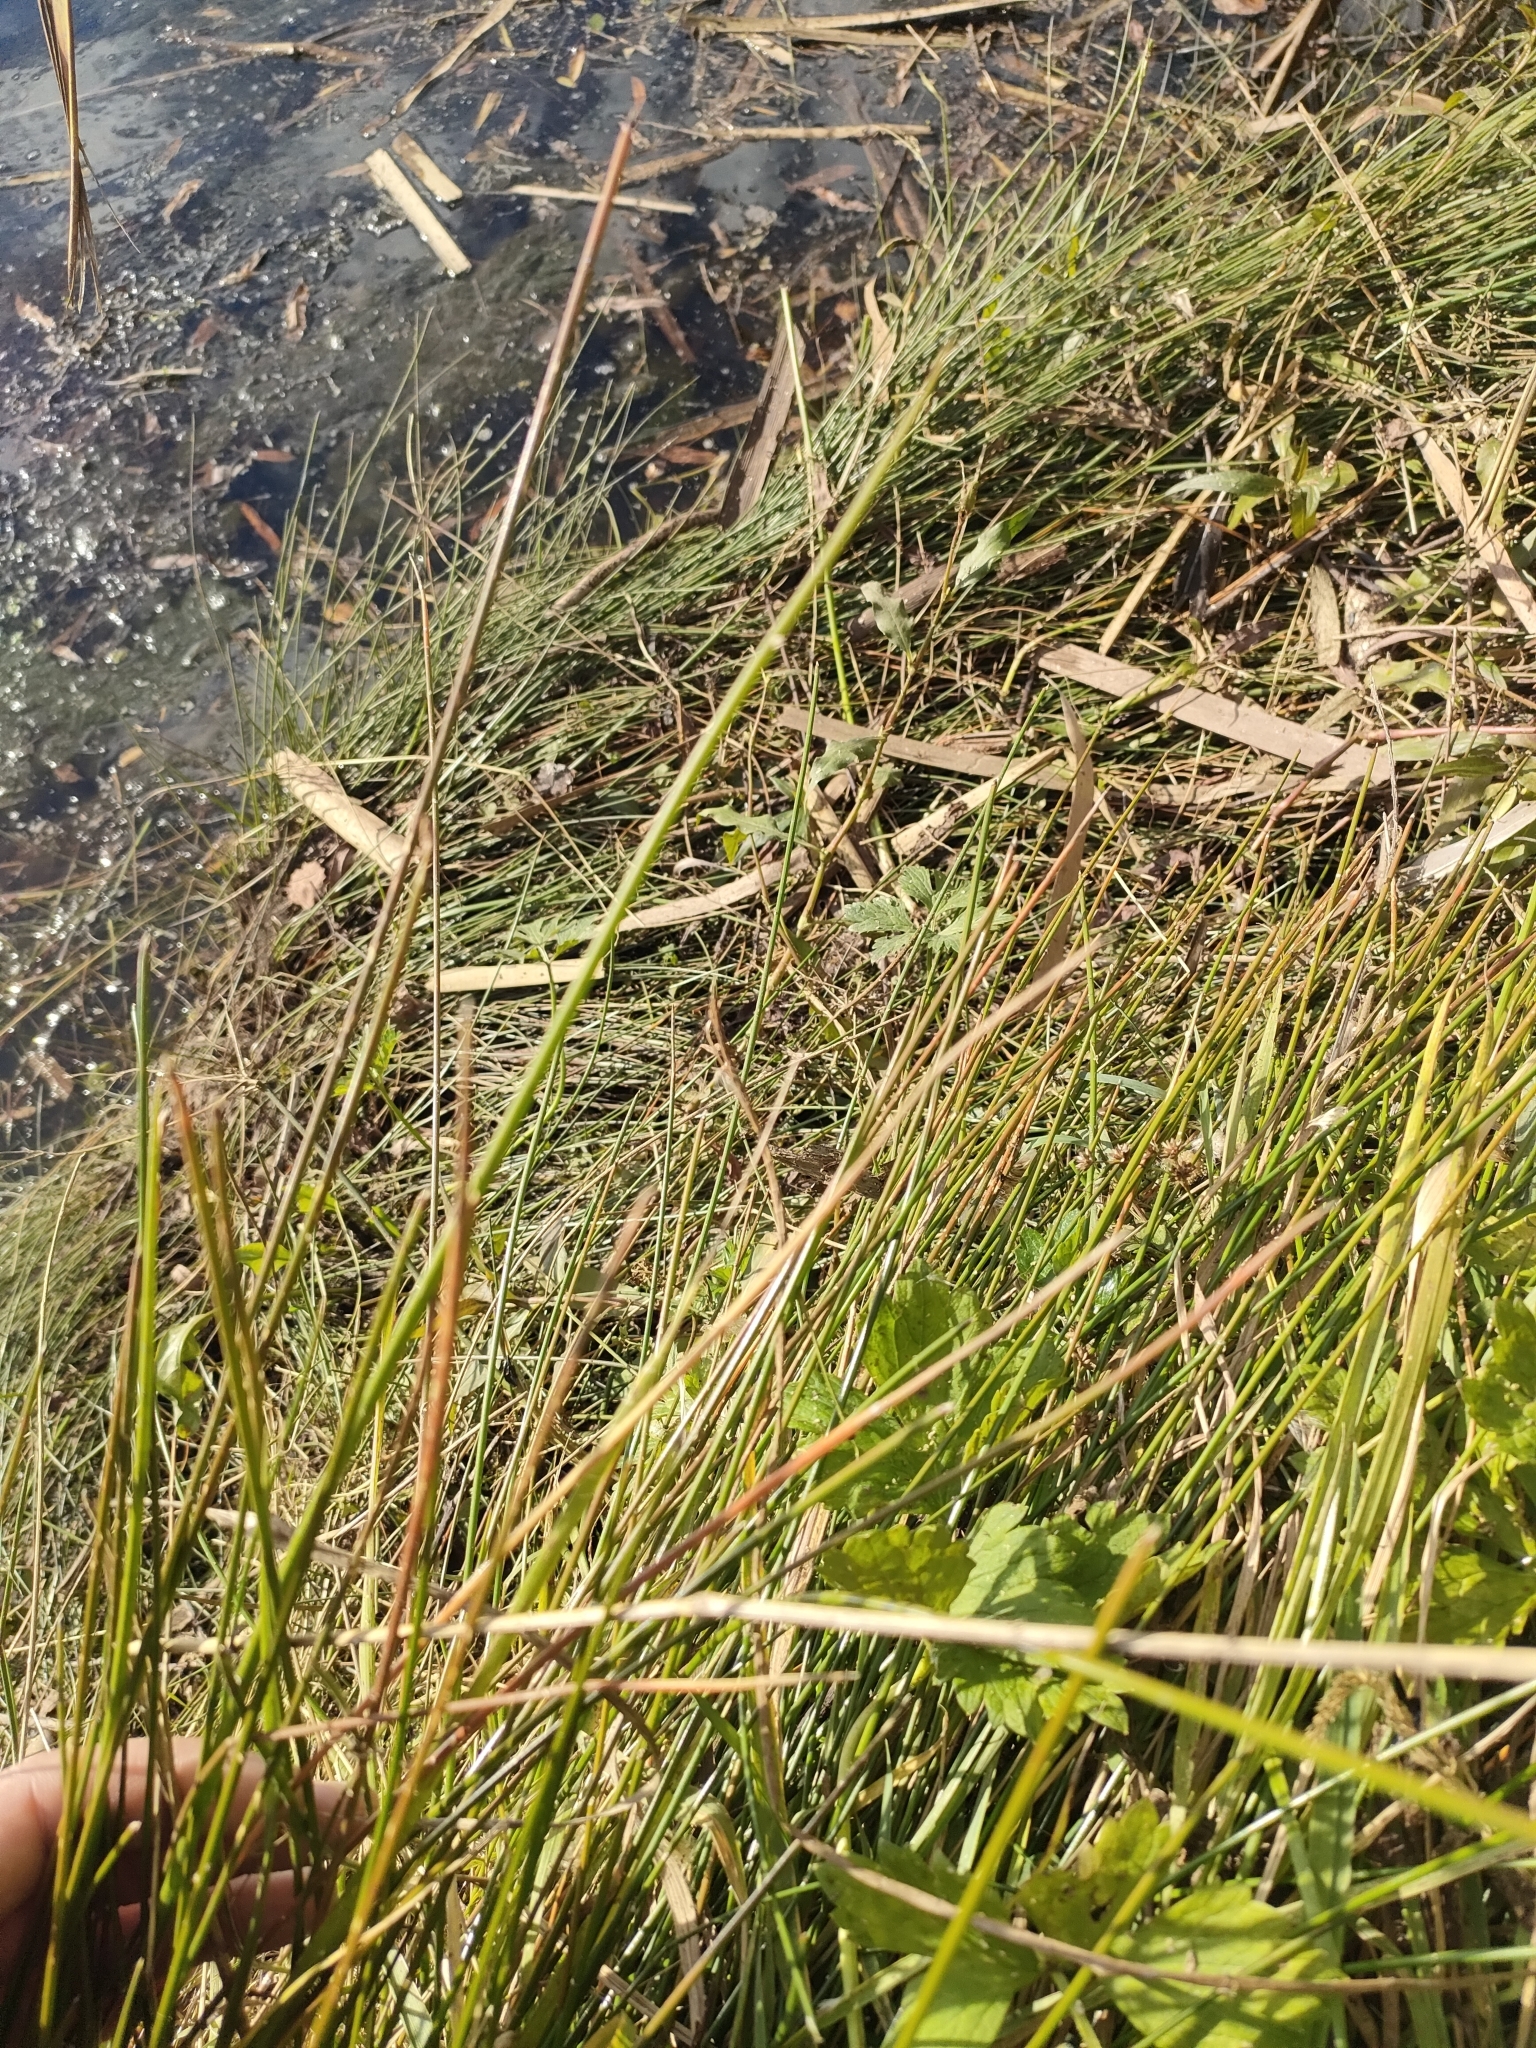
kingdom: Plantae
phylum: Tracheophyta
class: Liliopsida
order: Poales
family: Cyperaceae
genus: Eleocharis
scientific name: Eleocharis acuta
